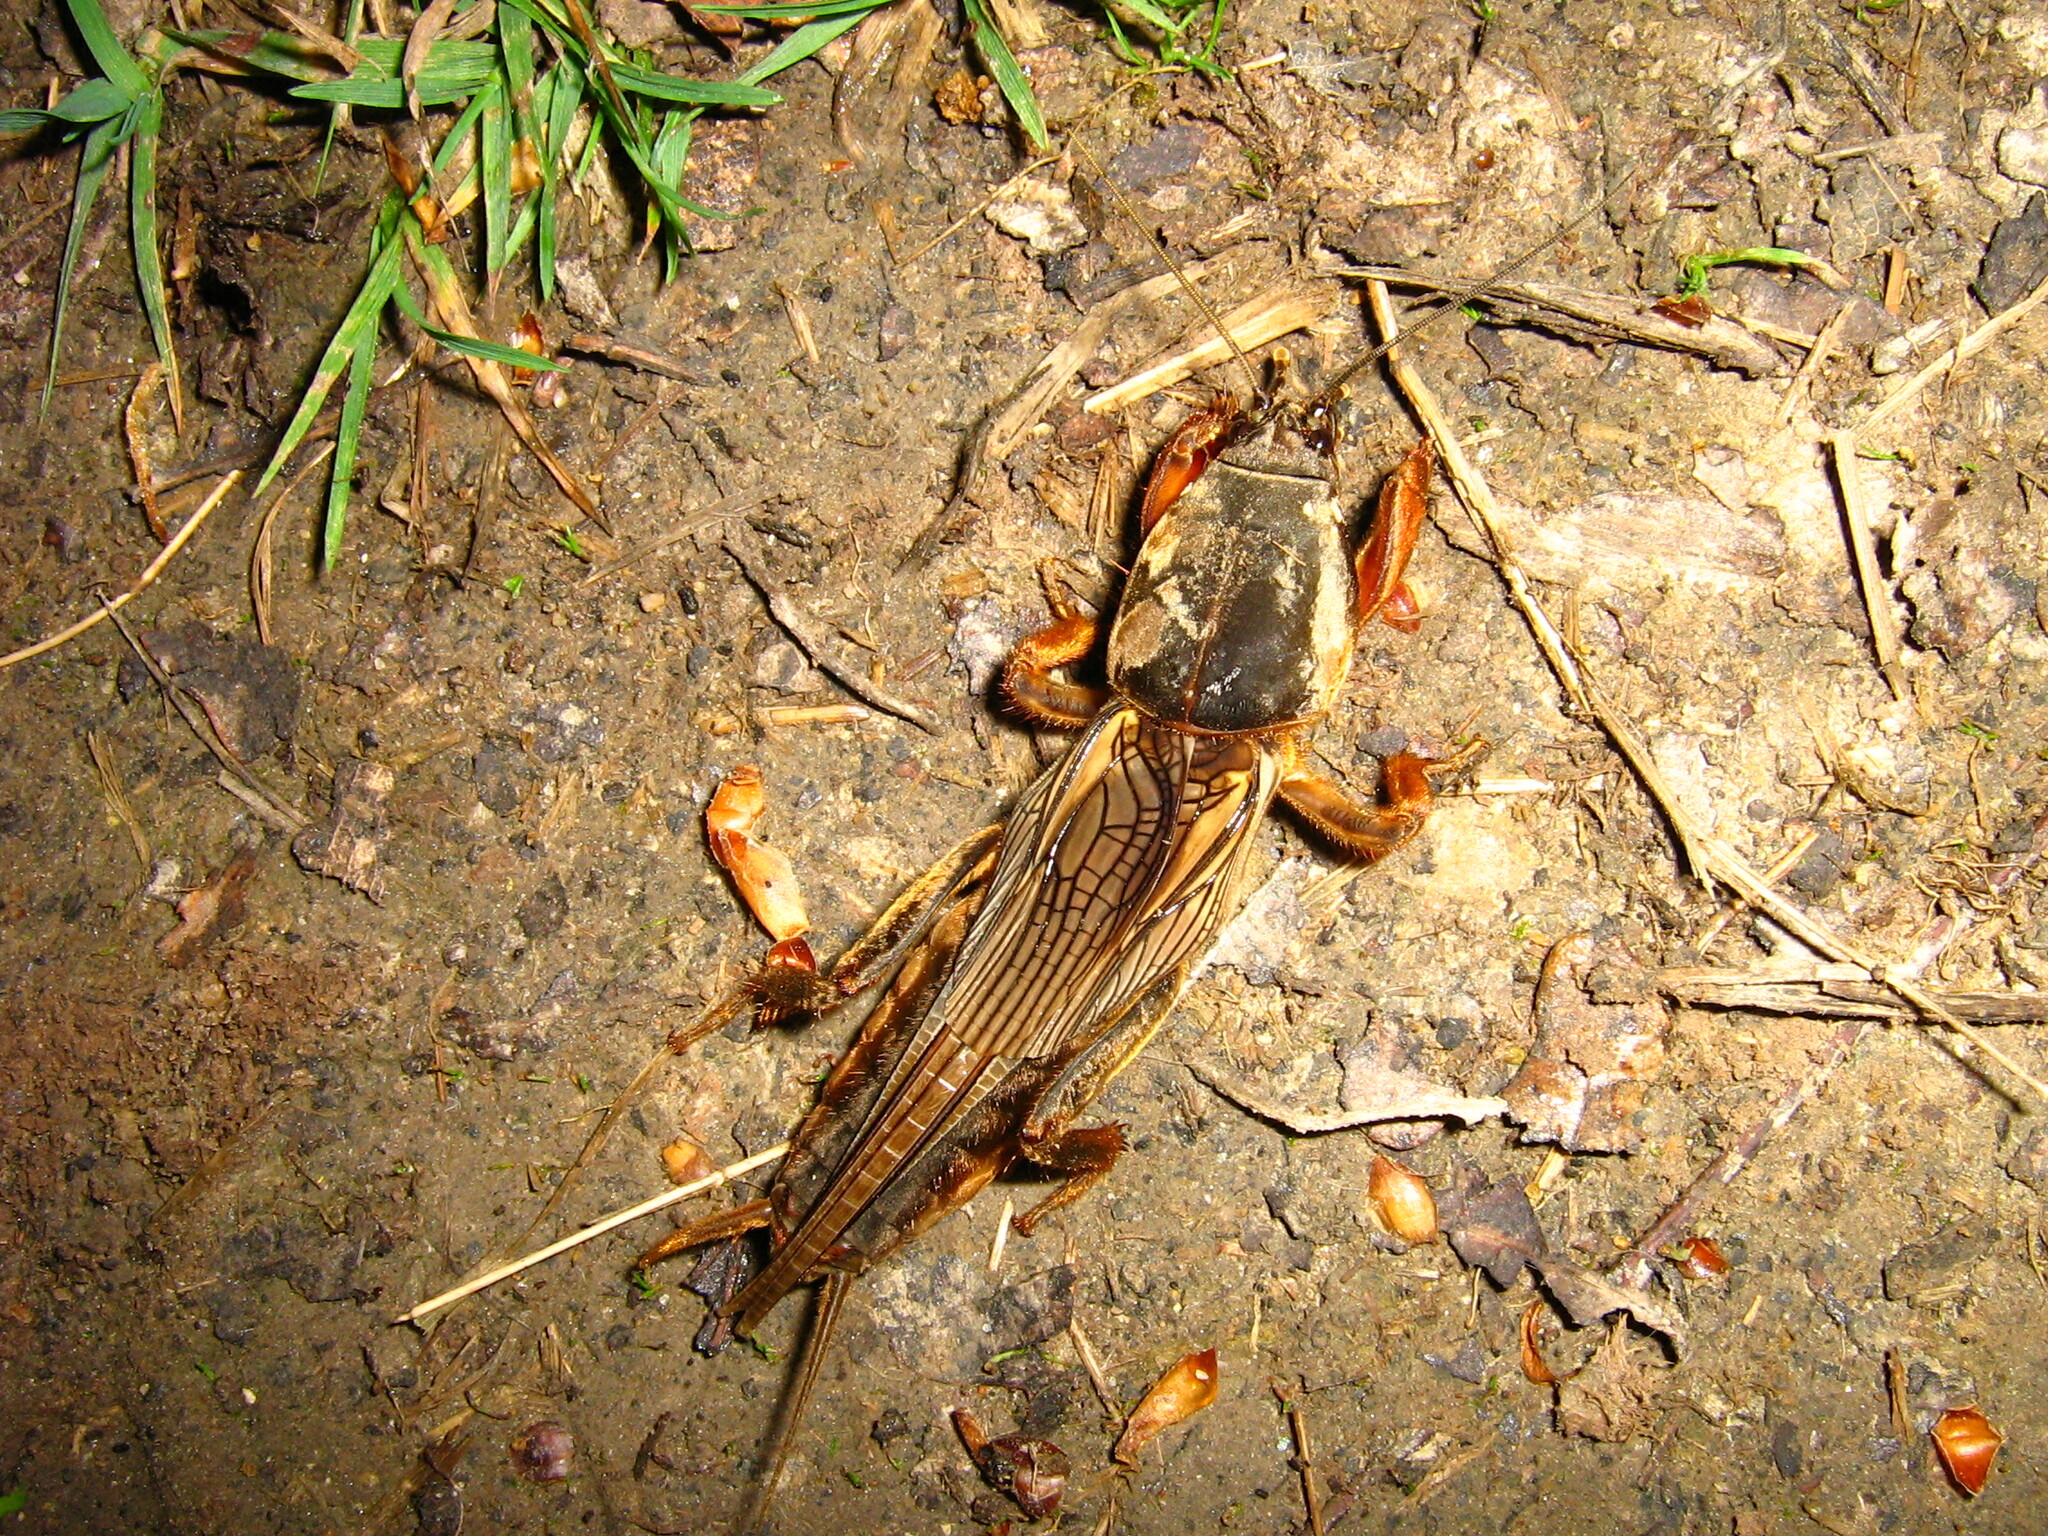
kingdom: Animalia
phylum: Arthropoda
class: Insecta
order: Orthoptera
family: Gryllotalpidae
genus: Gryllotalpa
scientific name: Gryllotalpa gryllotalpa
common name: European mole cricket
